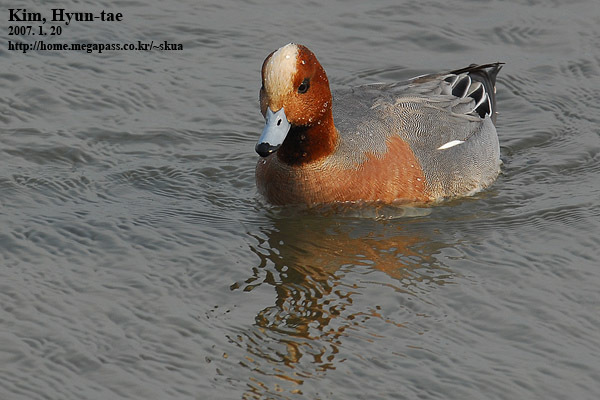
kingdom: Animalia
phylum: Chordata
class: Aves
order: Anseriformes
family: Anatidae
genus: Mareca
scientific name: Mareca penelope
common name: Eurasian wigeon
